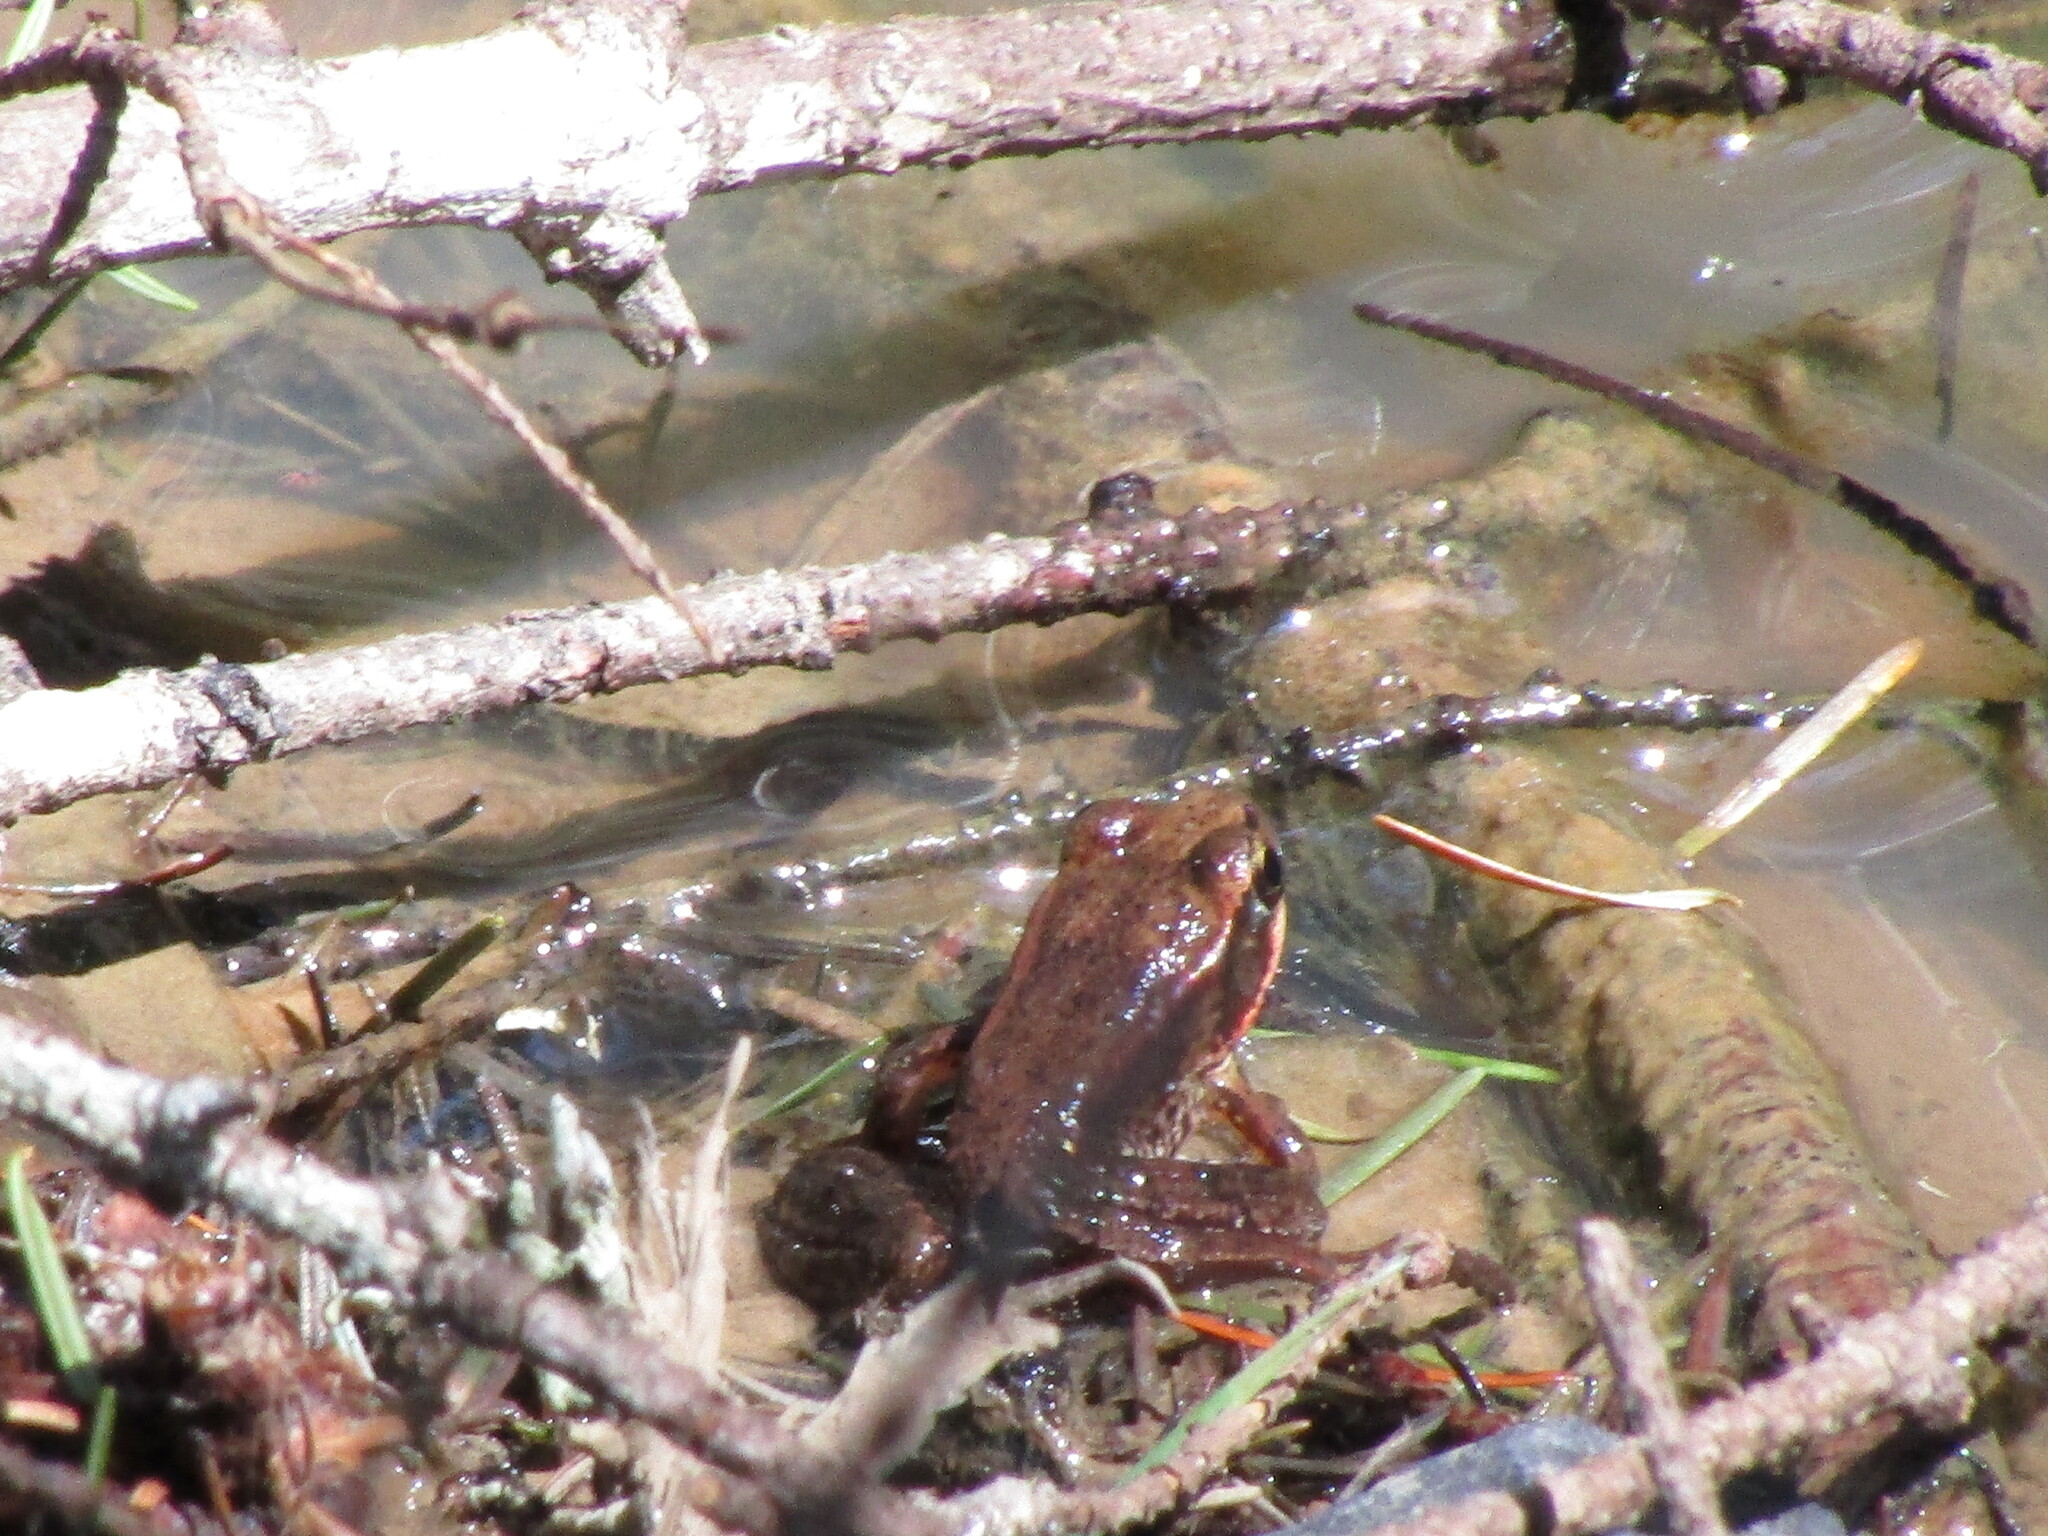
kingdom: Animalia
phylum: Chordata
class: Amphibia
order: Anura
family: Ranidae
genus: Rana
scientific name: Rana aurora
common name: Red-legged frog
